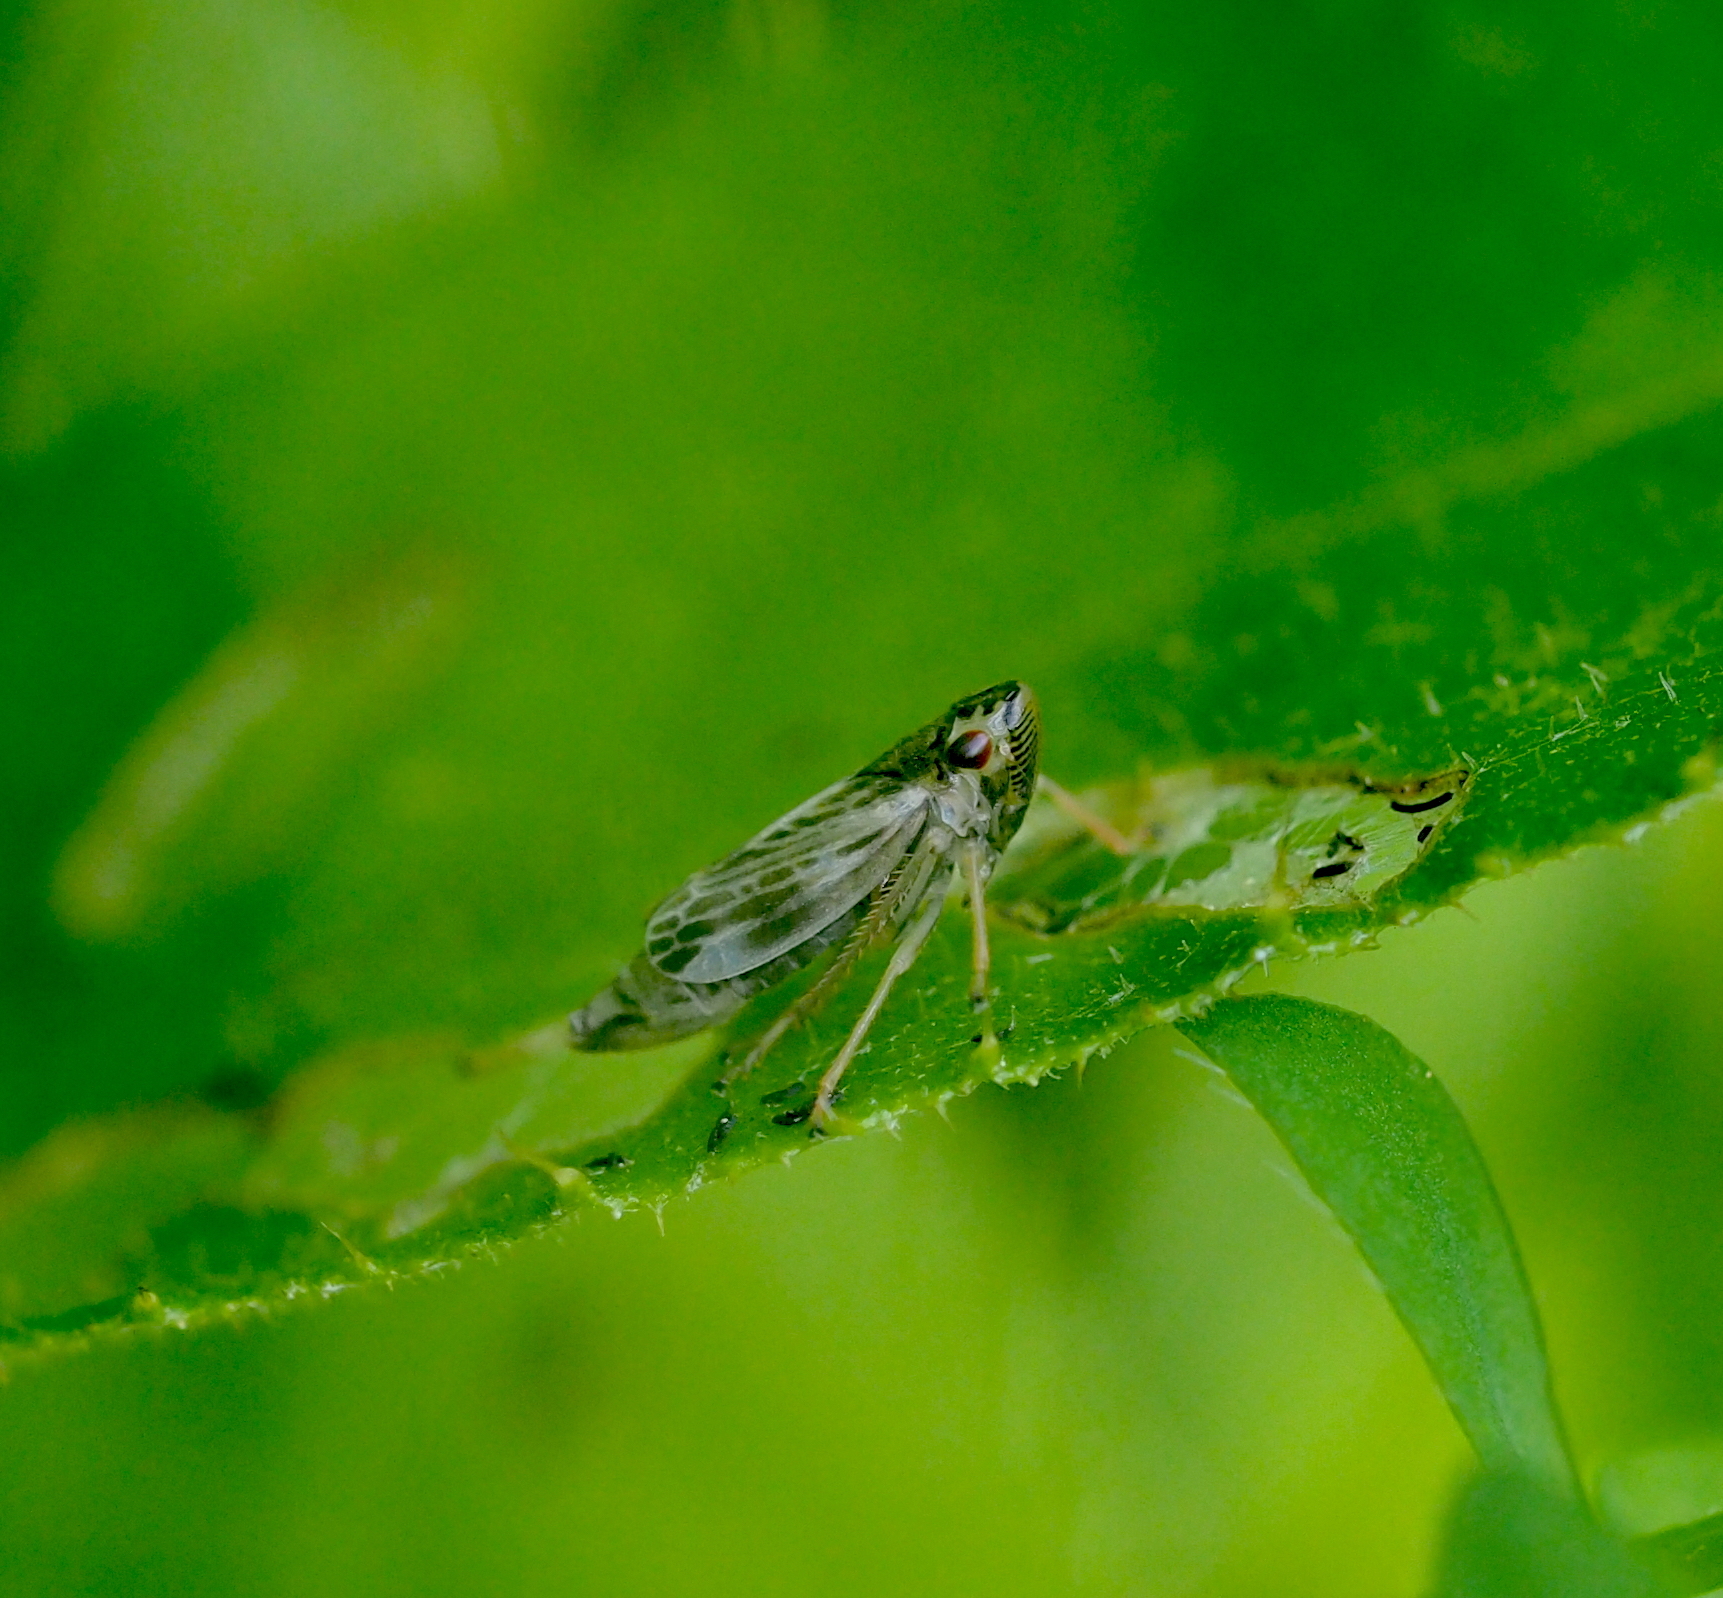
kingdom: Animalia
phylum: Arthropoda
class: Insecta
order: Hemiptera
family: Cicadellidae
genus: Evacanthus
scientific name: Evacanthus acuminatus
